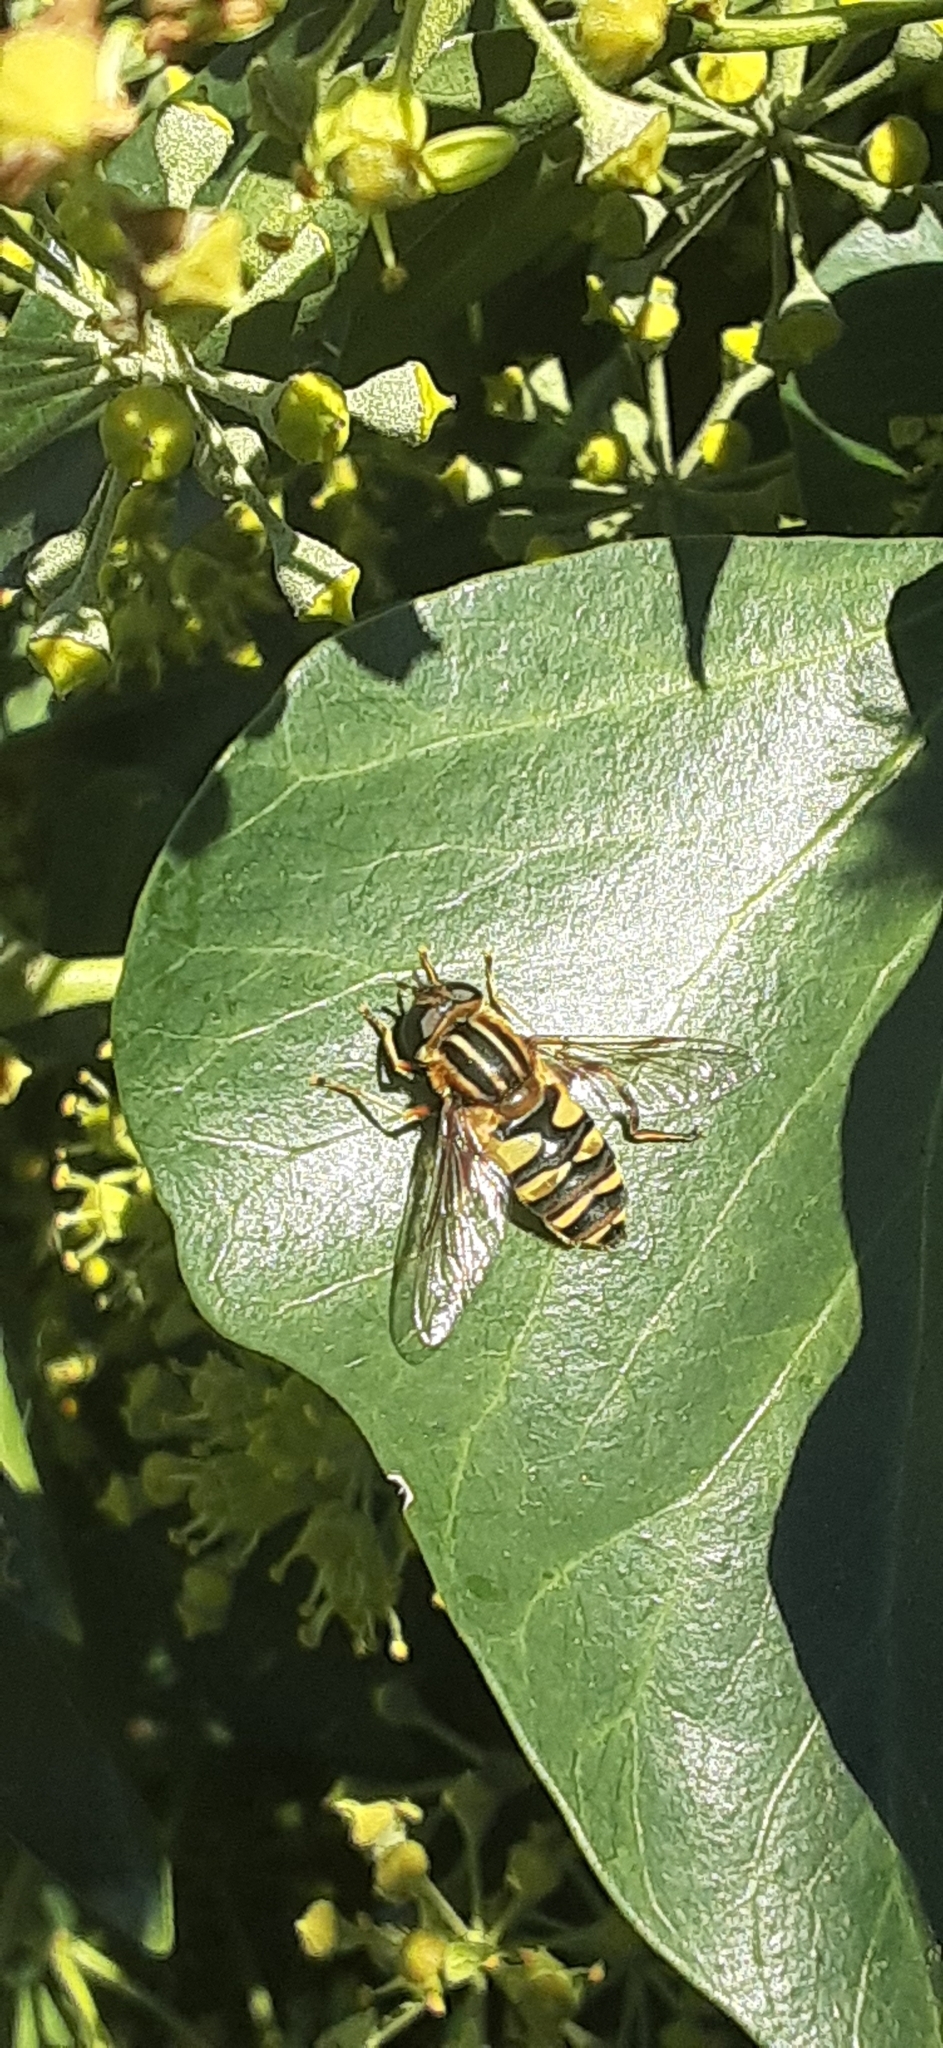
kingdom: Animalia
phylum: Arthropoda
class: Insecta
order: Diptera
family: Syrphidae
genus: Helophilus
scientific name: Helophilus fasciatus
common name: Narrow-headed marsh fly
